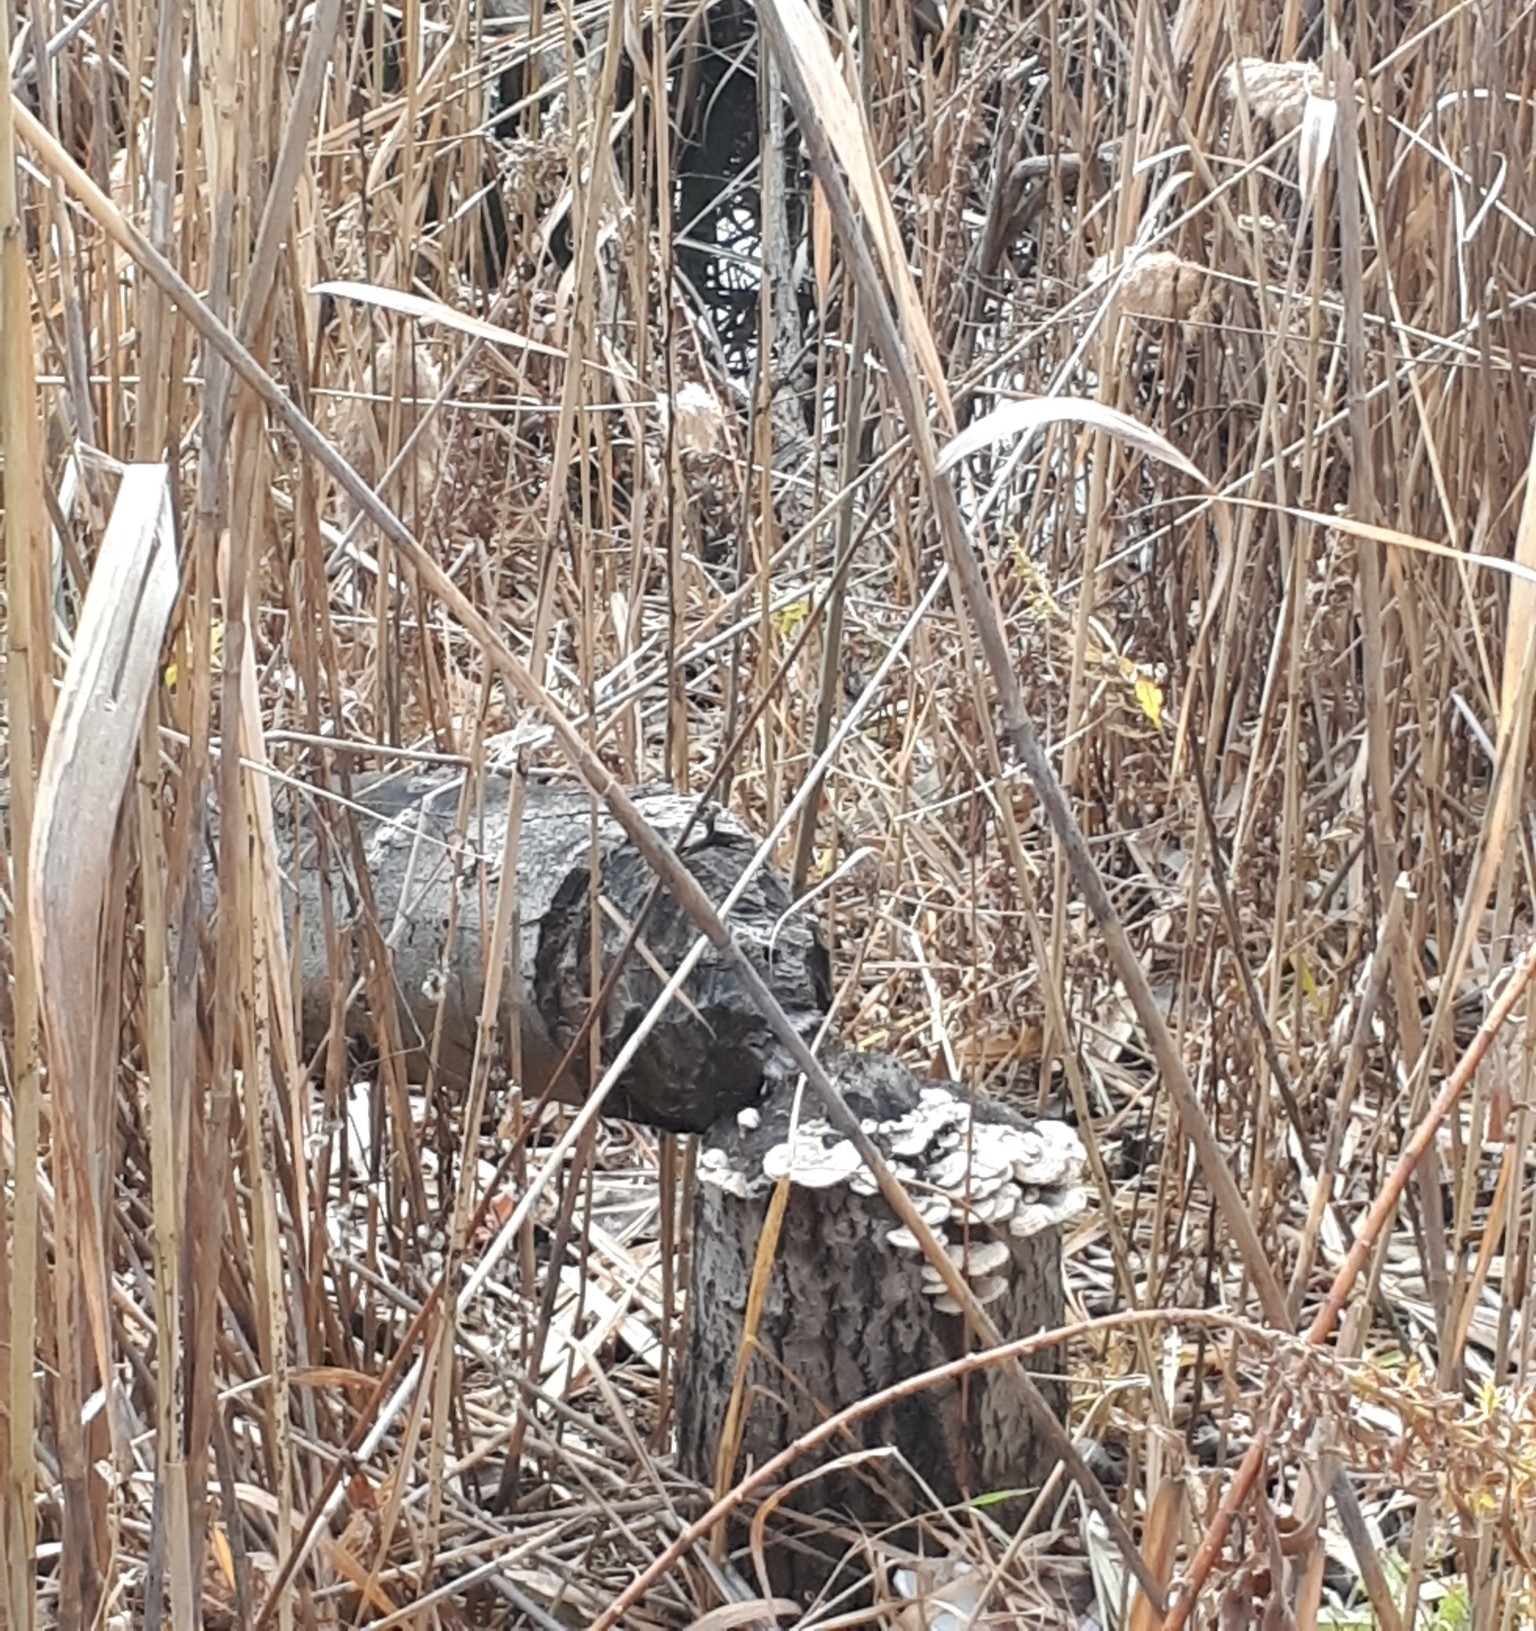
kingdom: Animalia
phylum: Chordata
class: Mammalia
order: Rodentia
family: Castoridae
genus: Castor
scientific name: Castor canadensis
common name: American beaver
